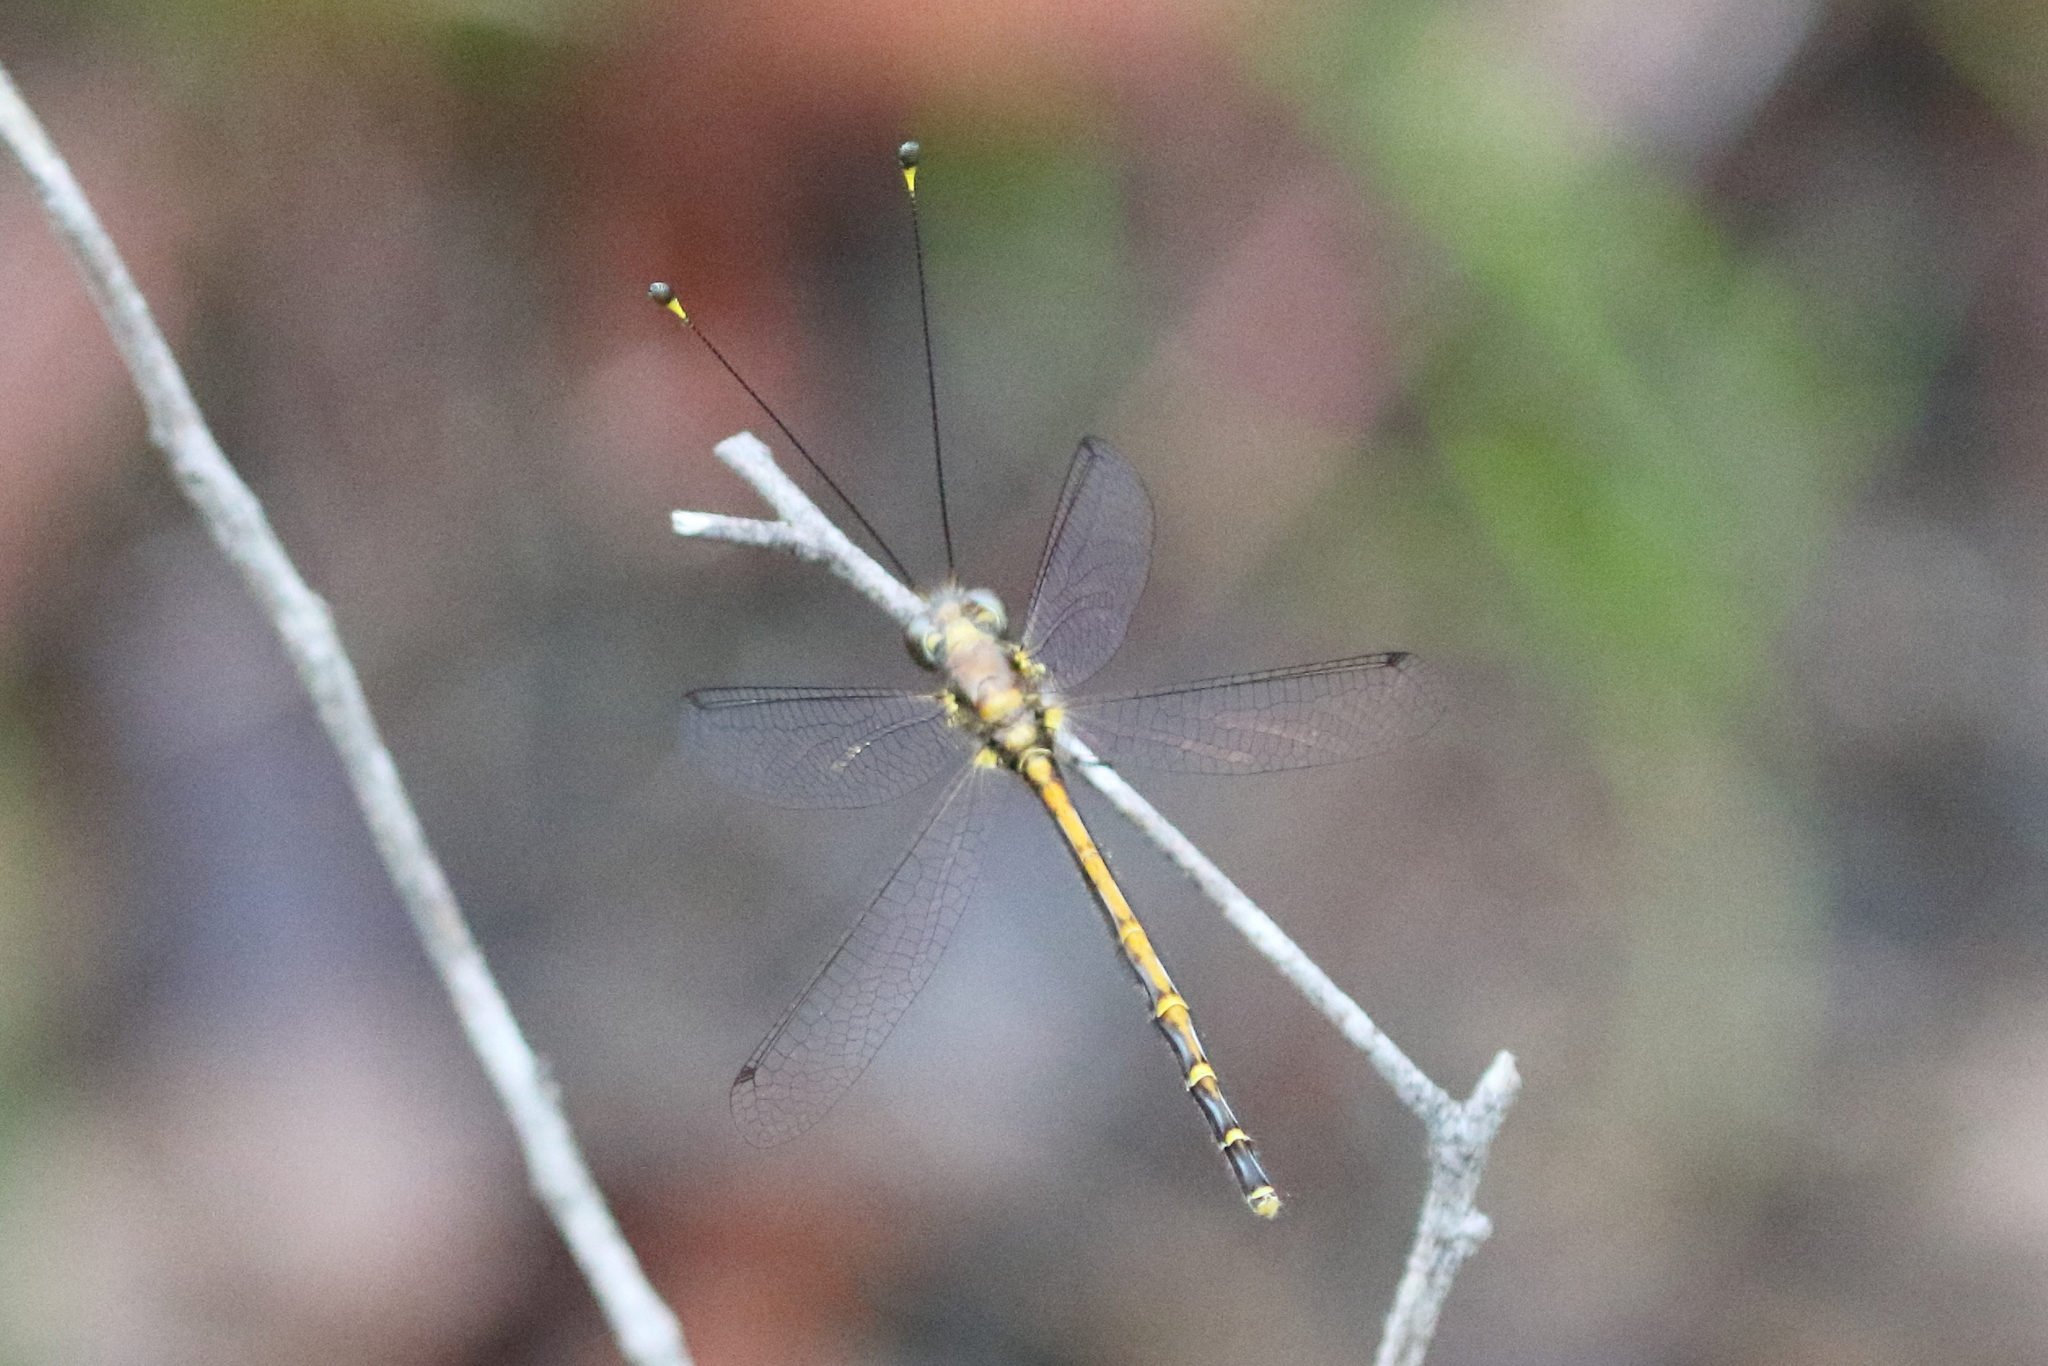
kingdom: Animalia
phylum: Arthropoda
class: Insecta
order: Neuroptera
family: Ascalaphidae
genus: Suhpalacsa
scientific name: Suhpalacsa subtrahens
